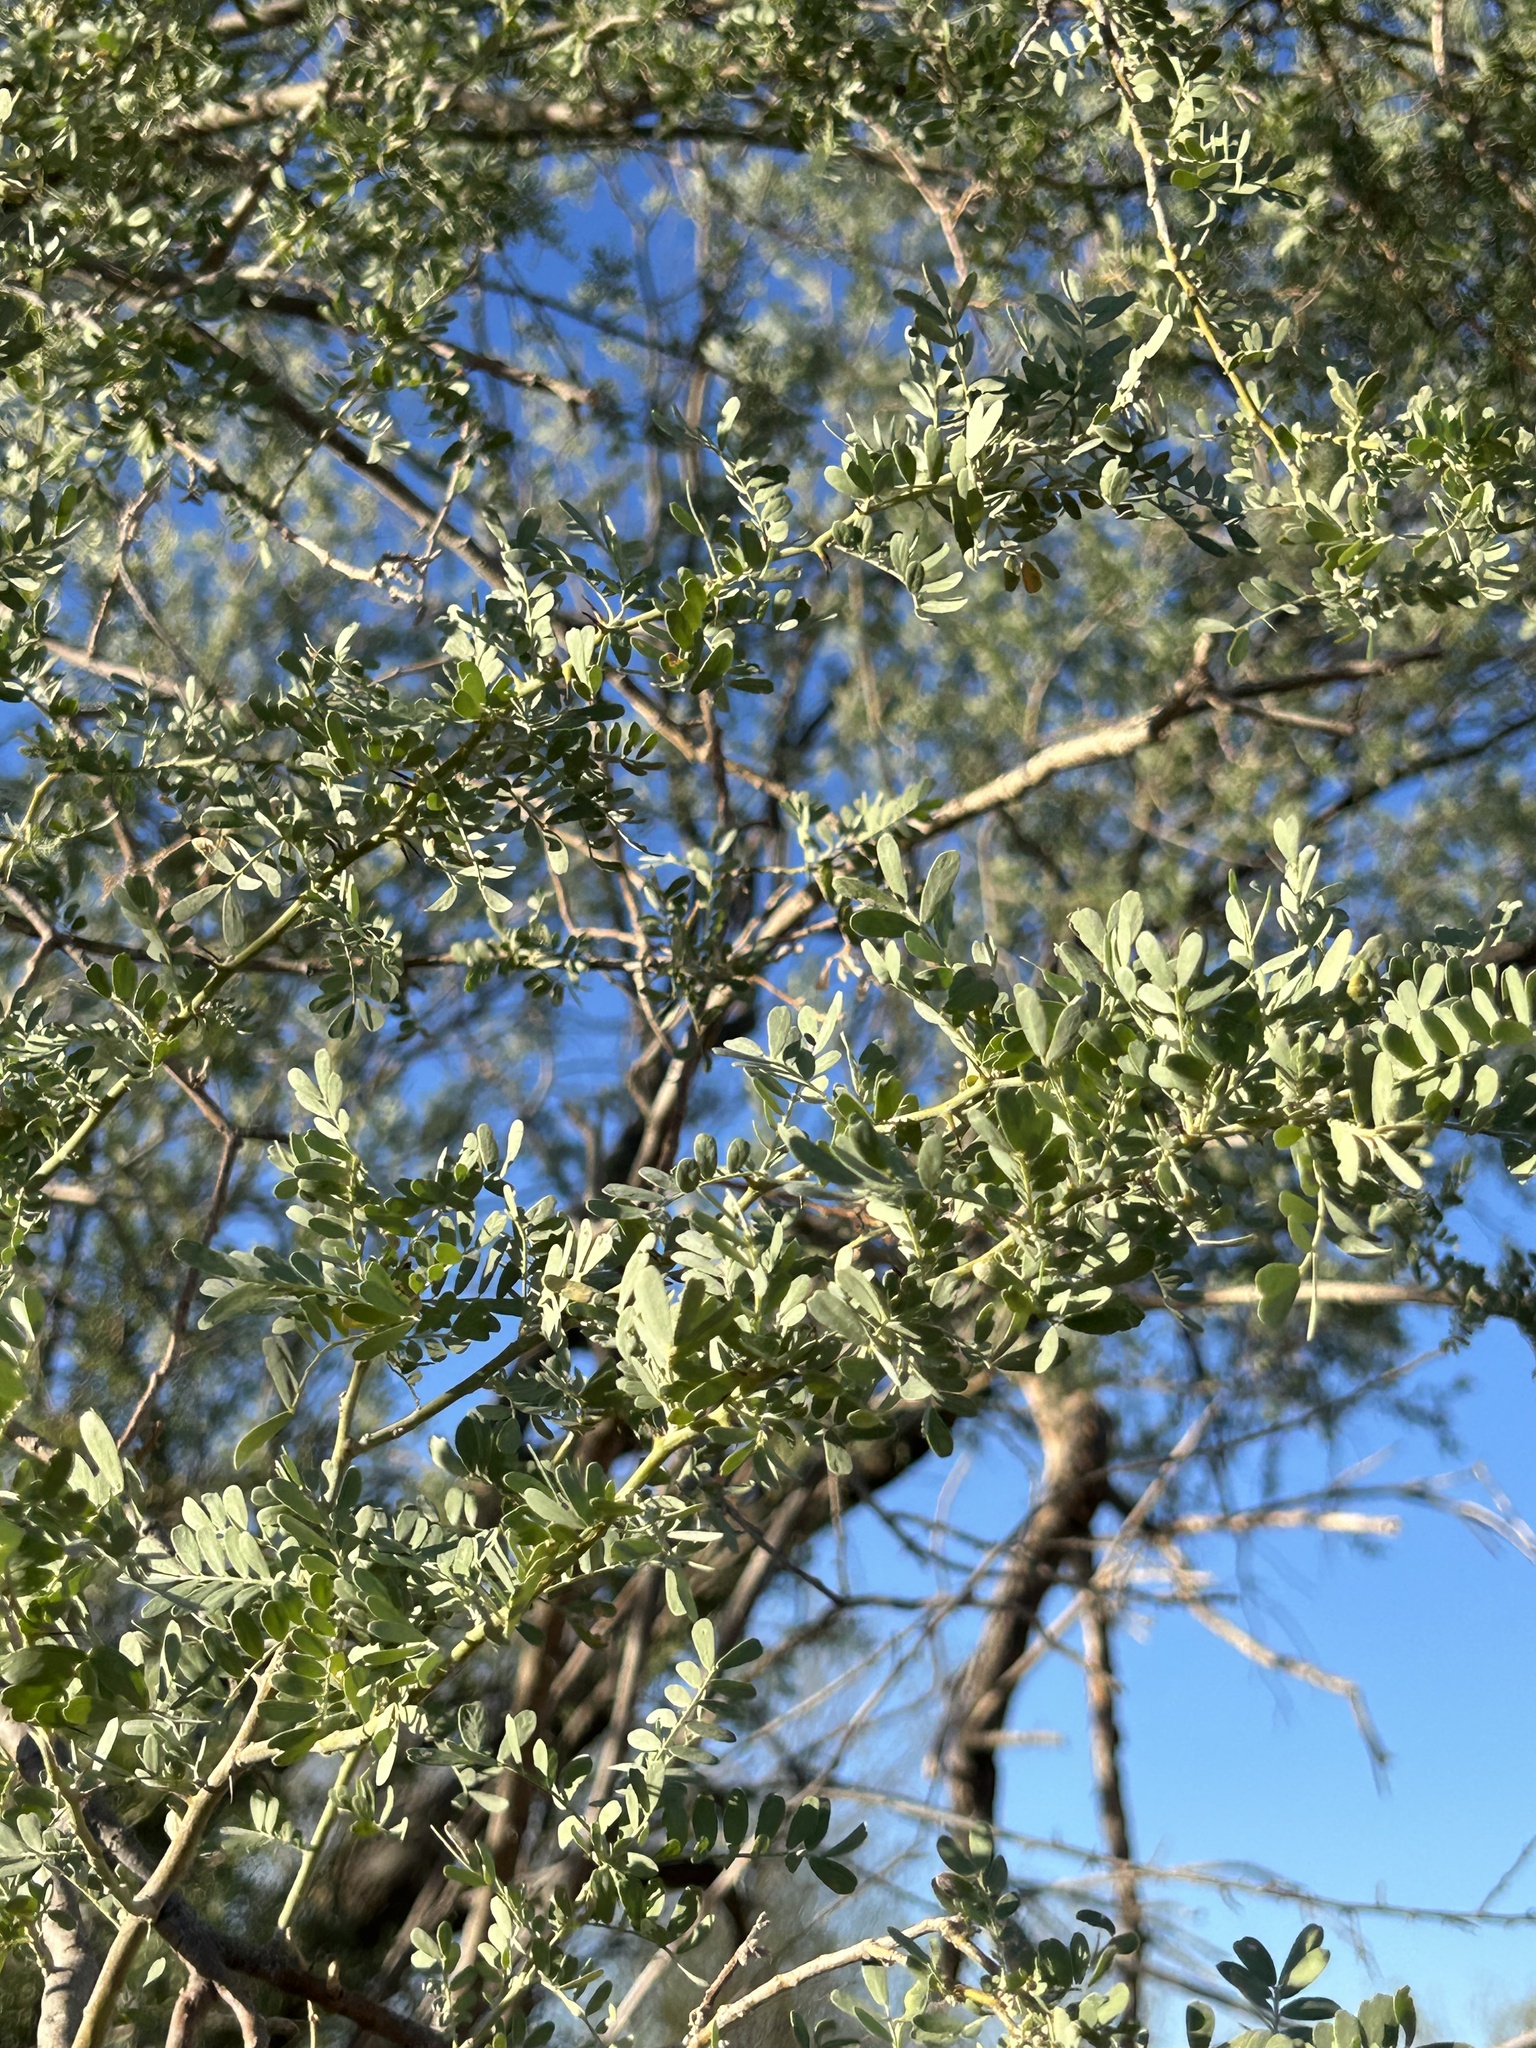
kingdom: Plantae
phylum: Tracheophyta
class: Magnoliopsida
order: Fabales
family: Fabaceae
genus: Olneya
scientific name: Olneya tesota
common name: Desert ironwood
